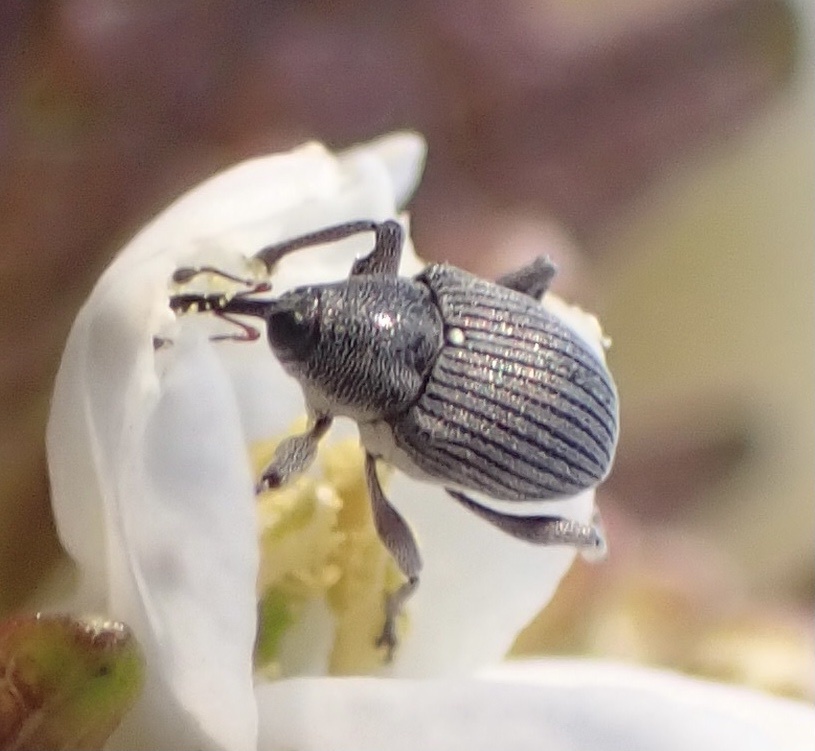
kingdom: Animalia
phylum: Arthropoda
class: Insecta
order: Coleoptera
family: Curculionidae
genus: Archarius
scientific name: Archarius salicivorus
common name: Weevil
